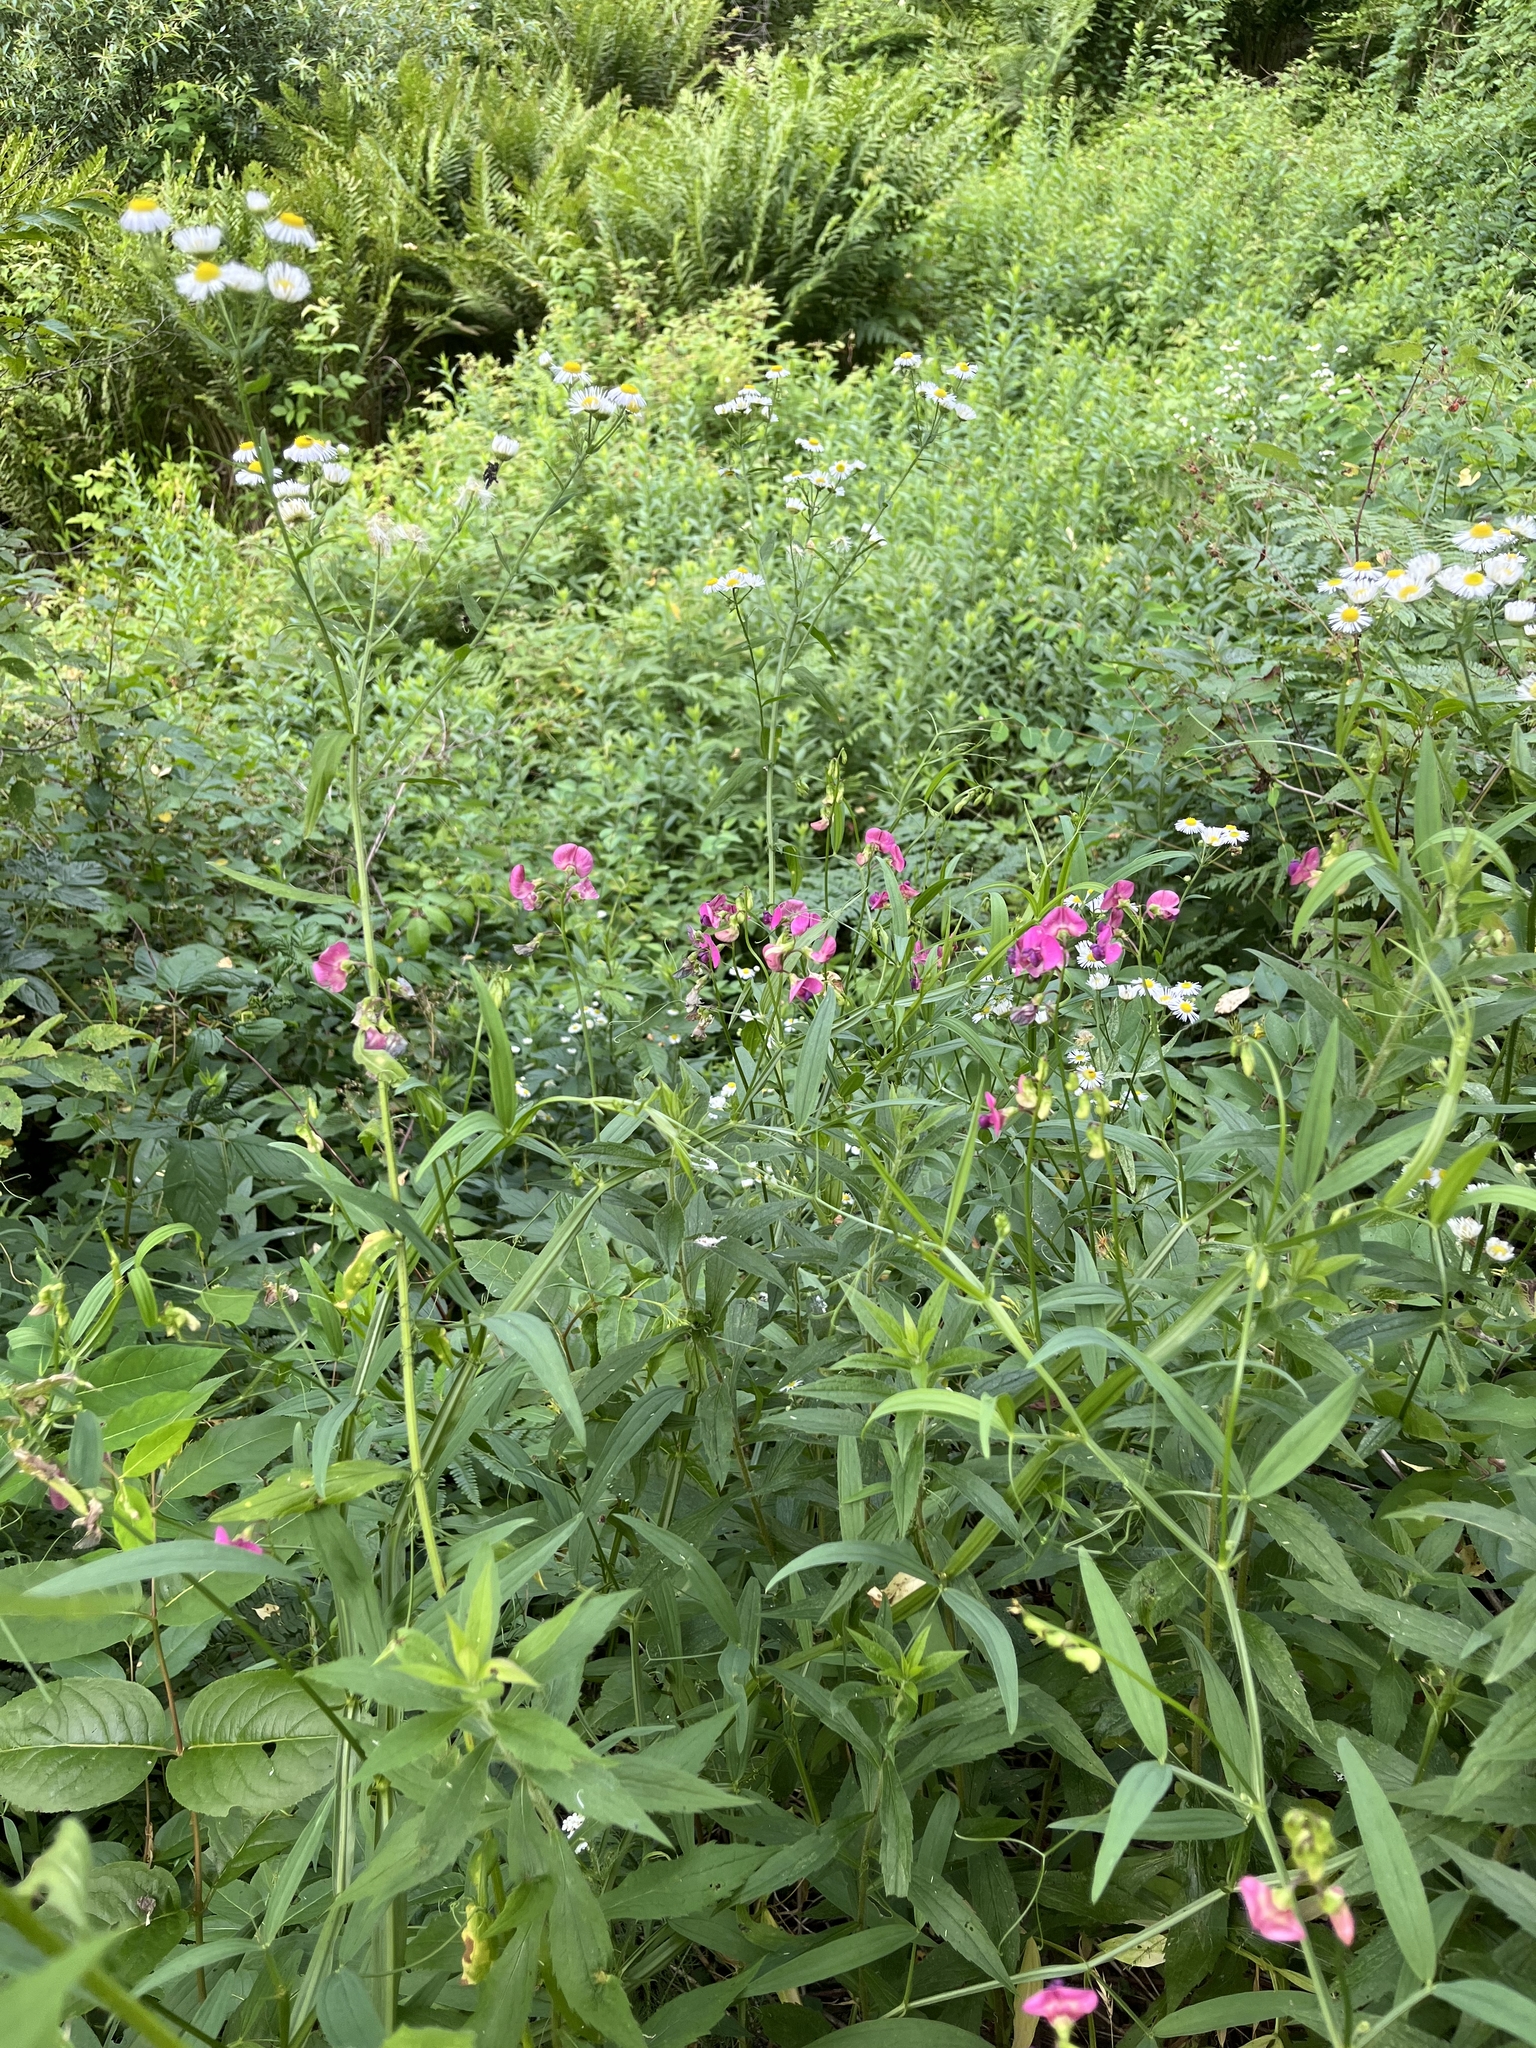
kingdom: Plantae
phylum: Tracheophyta
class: Magnoliopsida
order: Fabales
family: Fabaceae
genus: Lathyrus
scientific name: Lathyrus sylvestris
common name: Flat pea
